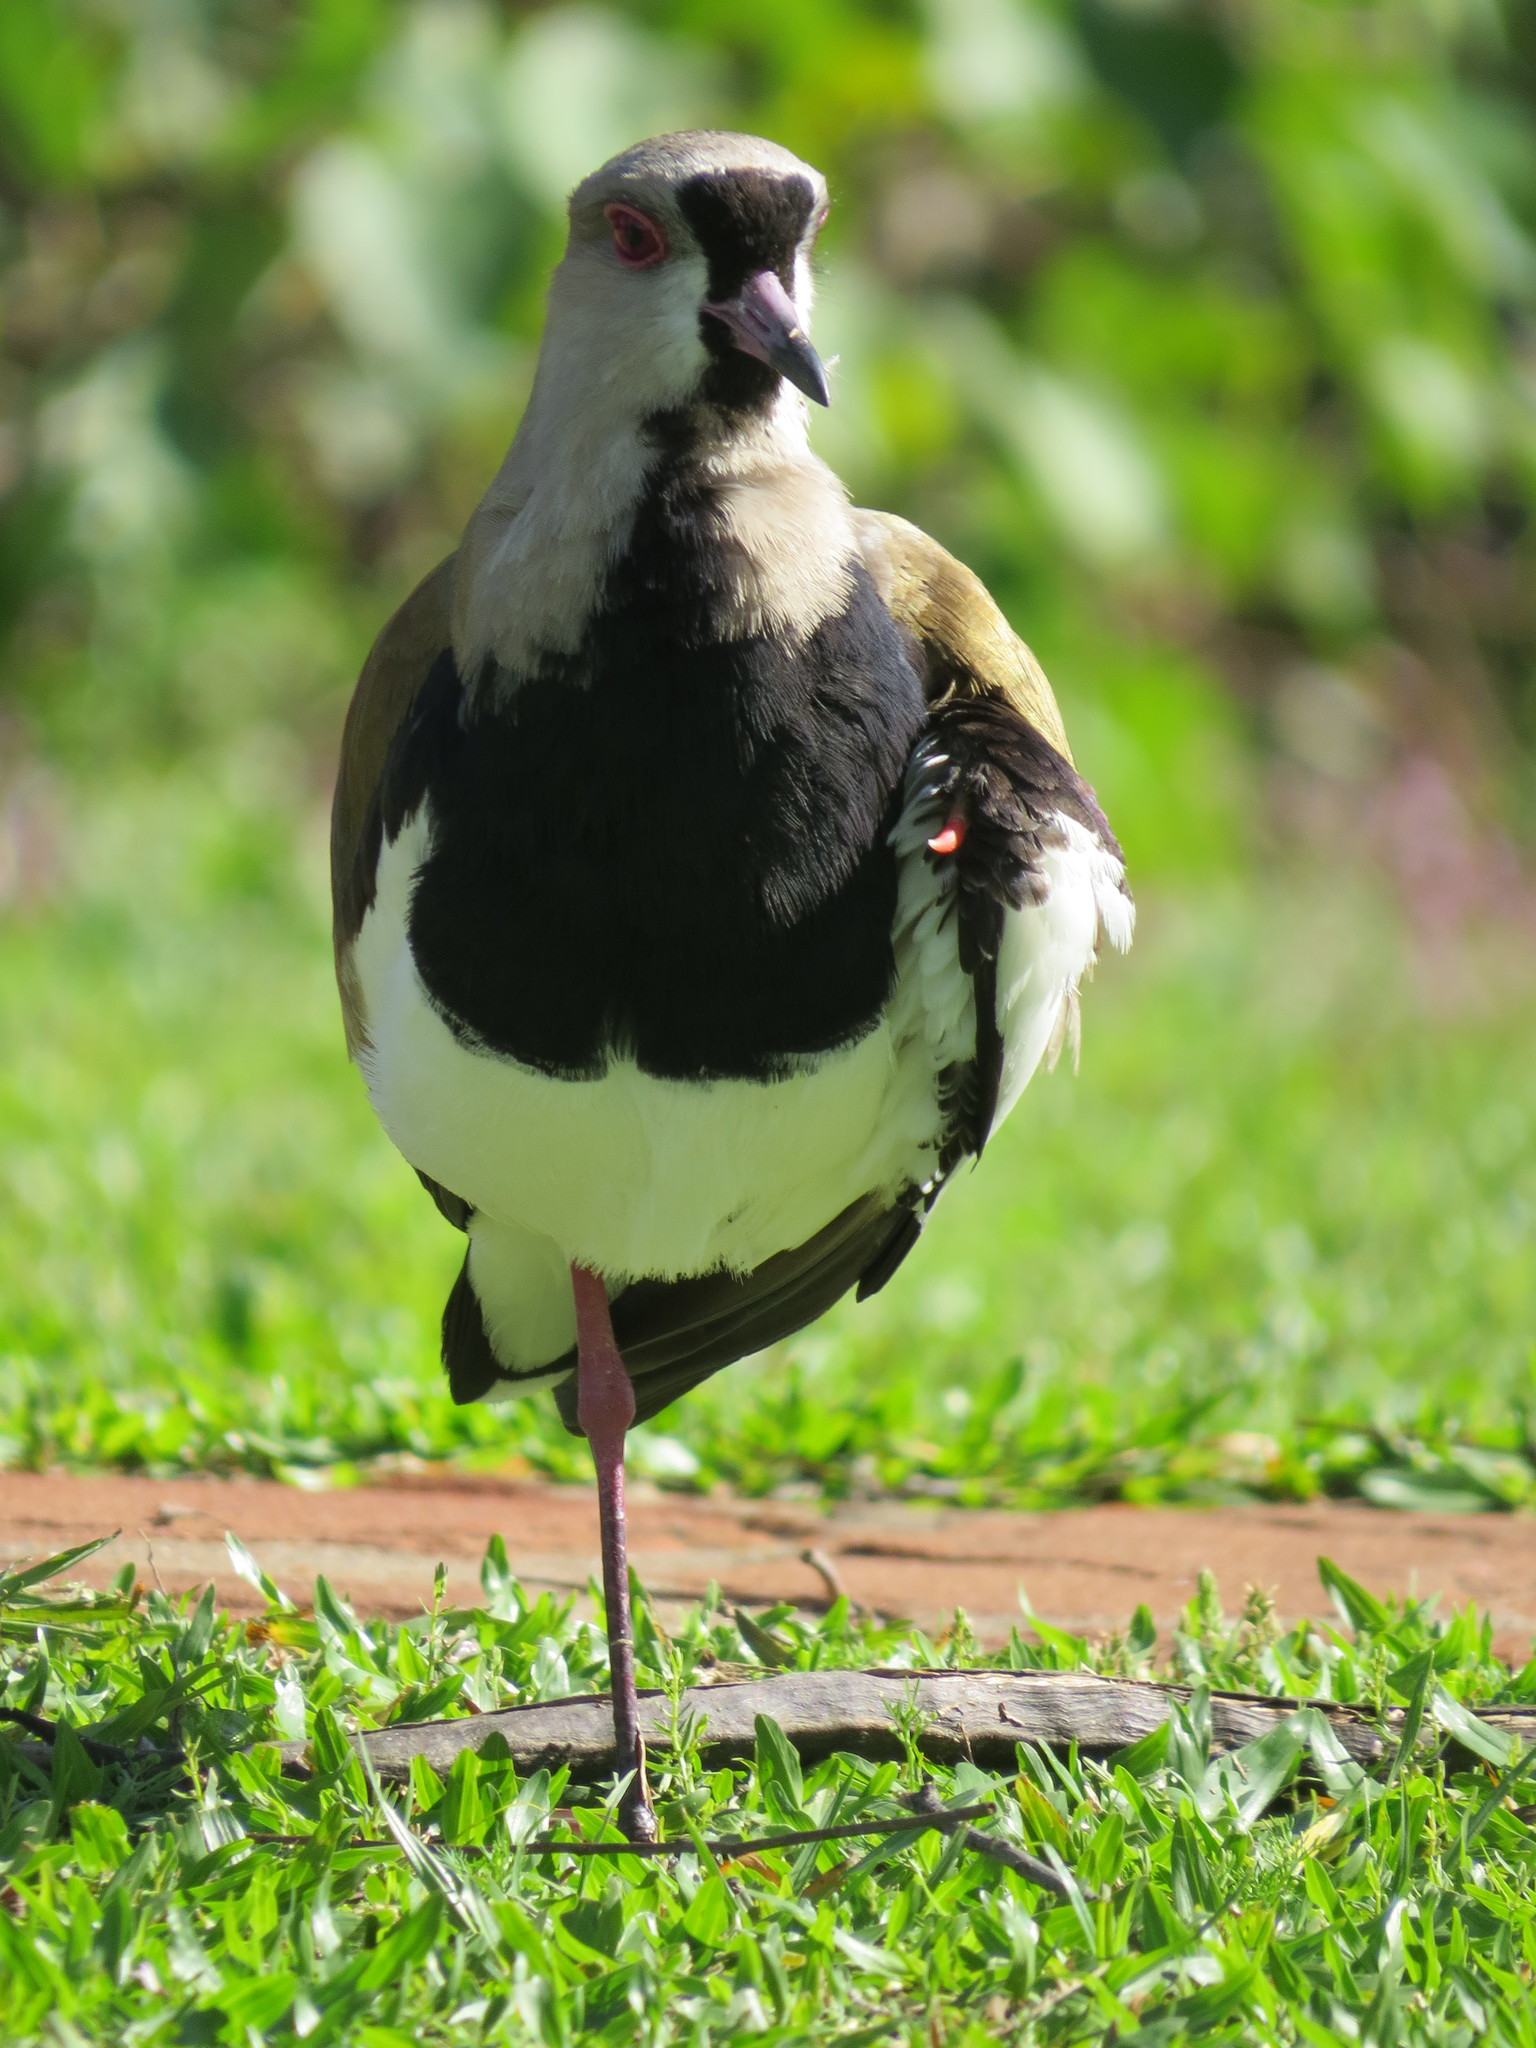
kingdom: Animalia
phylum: Chordata
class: Aves
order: Charadriiformes
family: Charadriidae
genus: Vanellus
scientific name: Vanellus chilensis
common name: Southern lapwing
